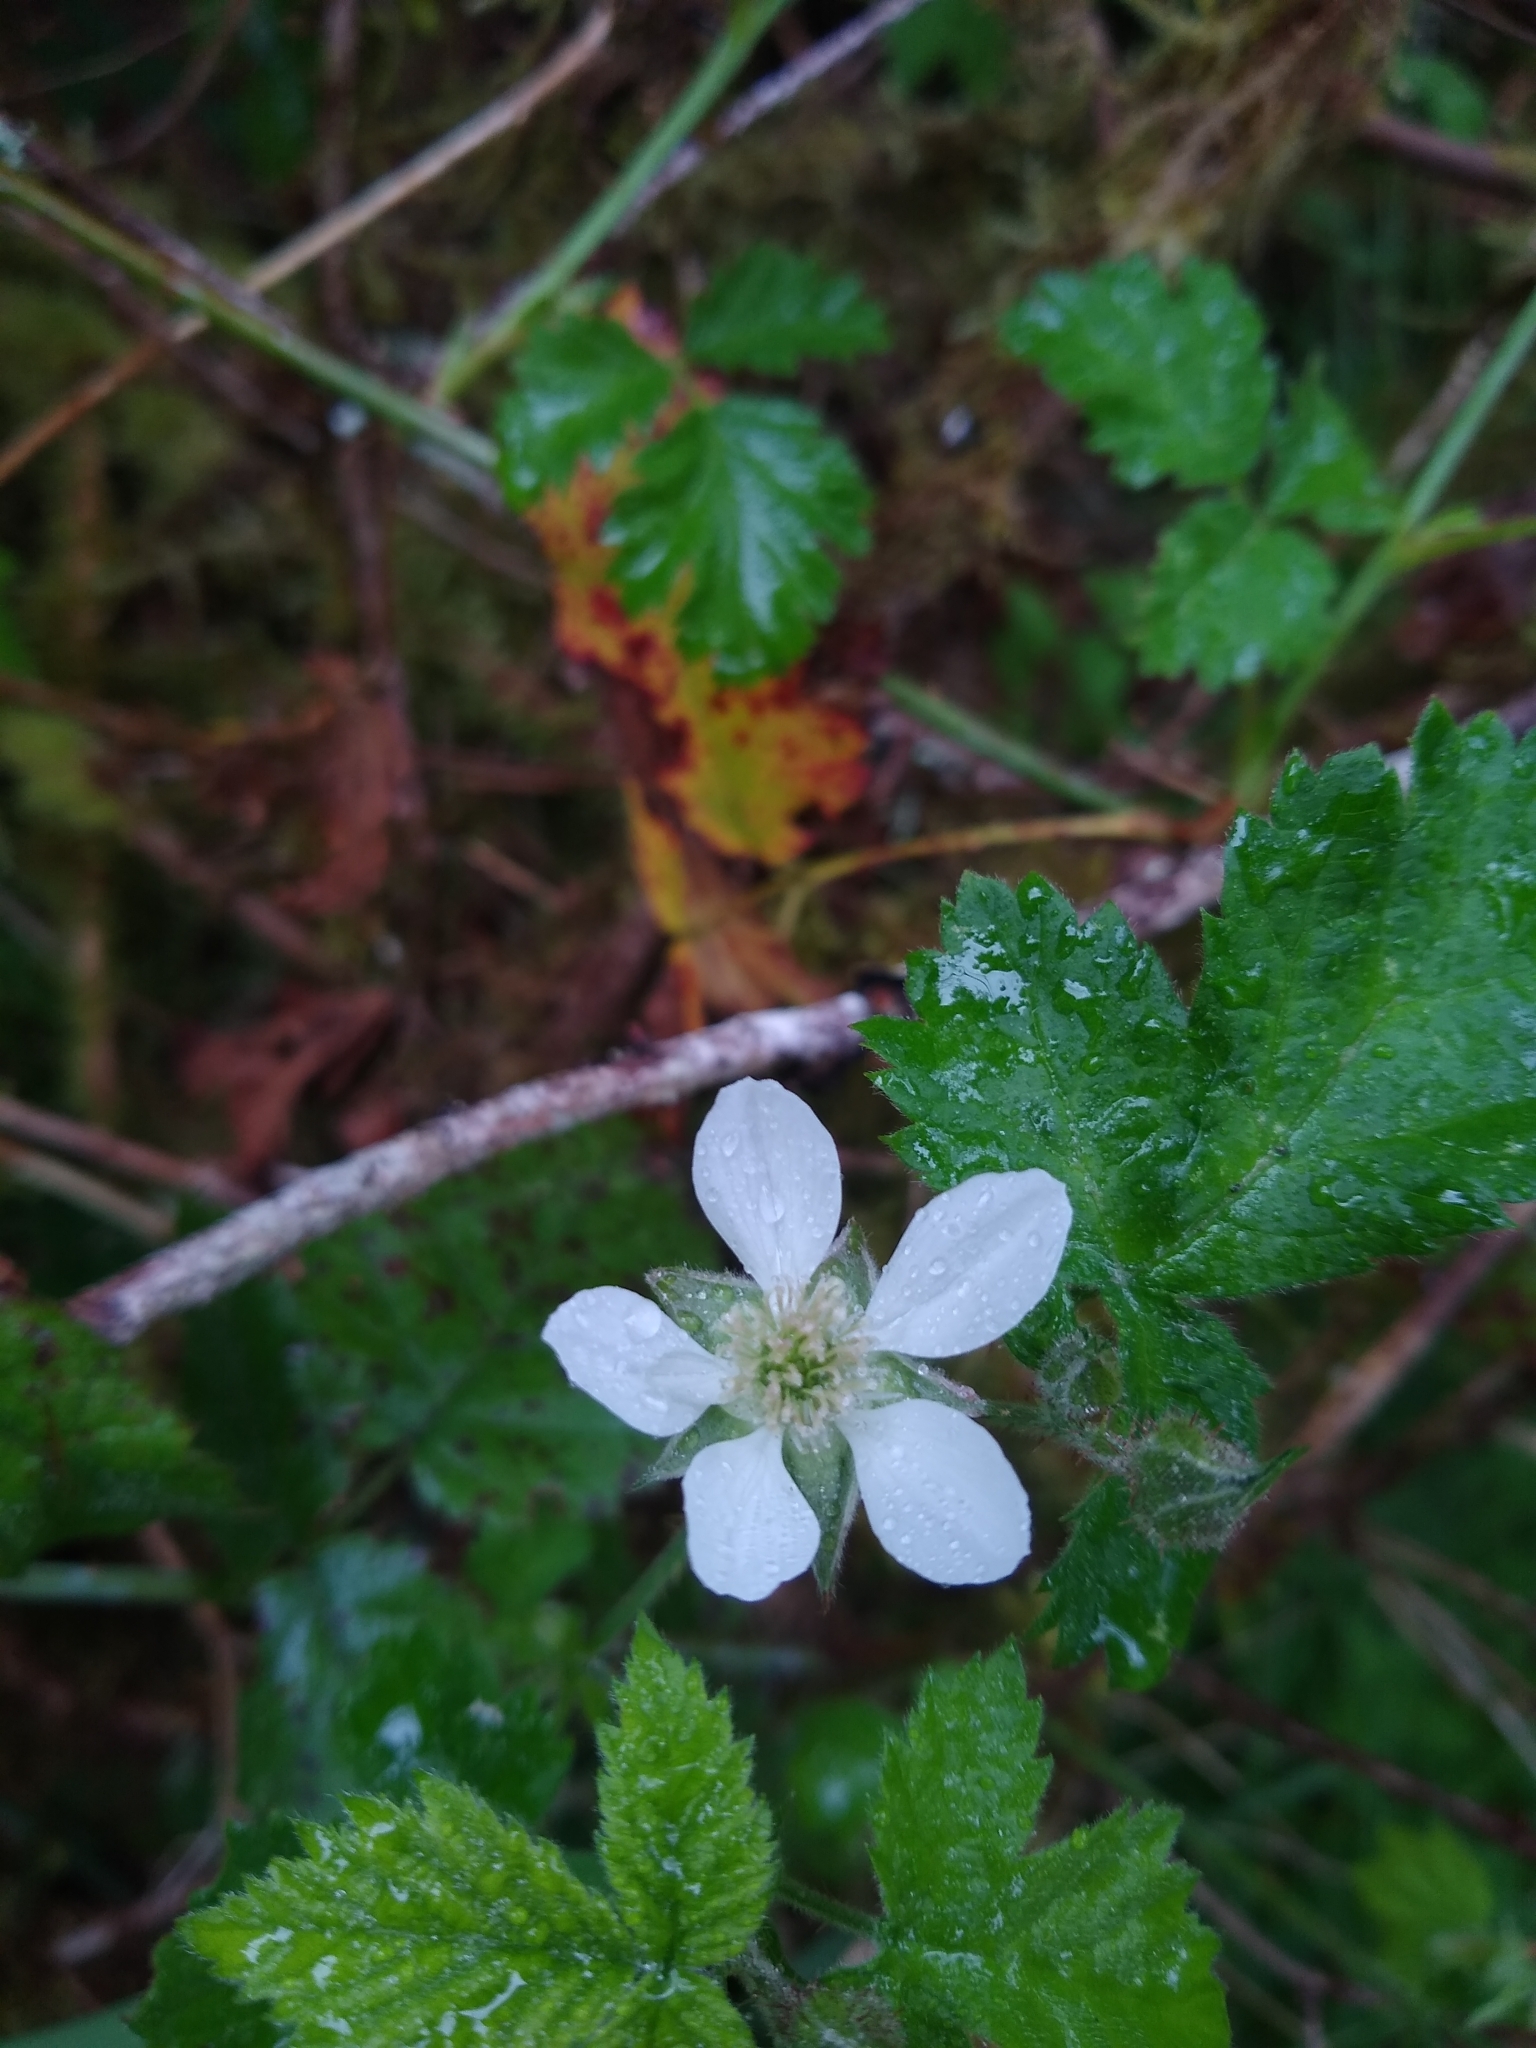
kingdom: Plantae
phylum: Tracheophyta
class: Magnoliopsida
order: Rosales
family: Rosaceae
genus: Rubus
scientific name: Rubus ursinus
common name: Pacific blackberry
